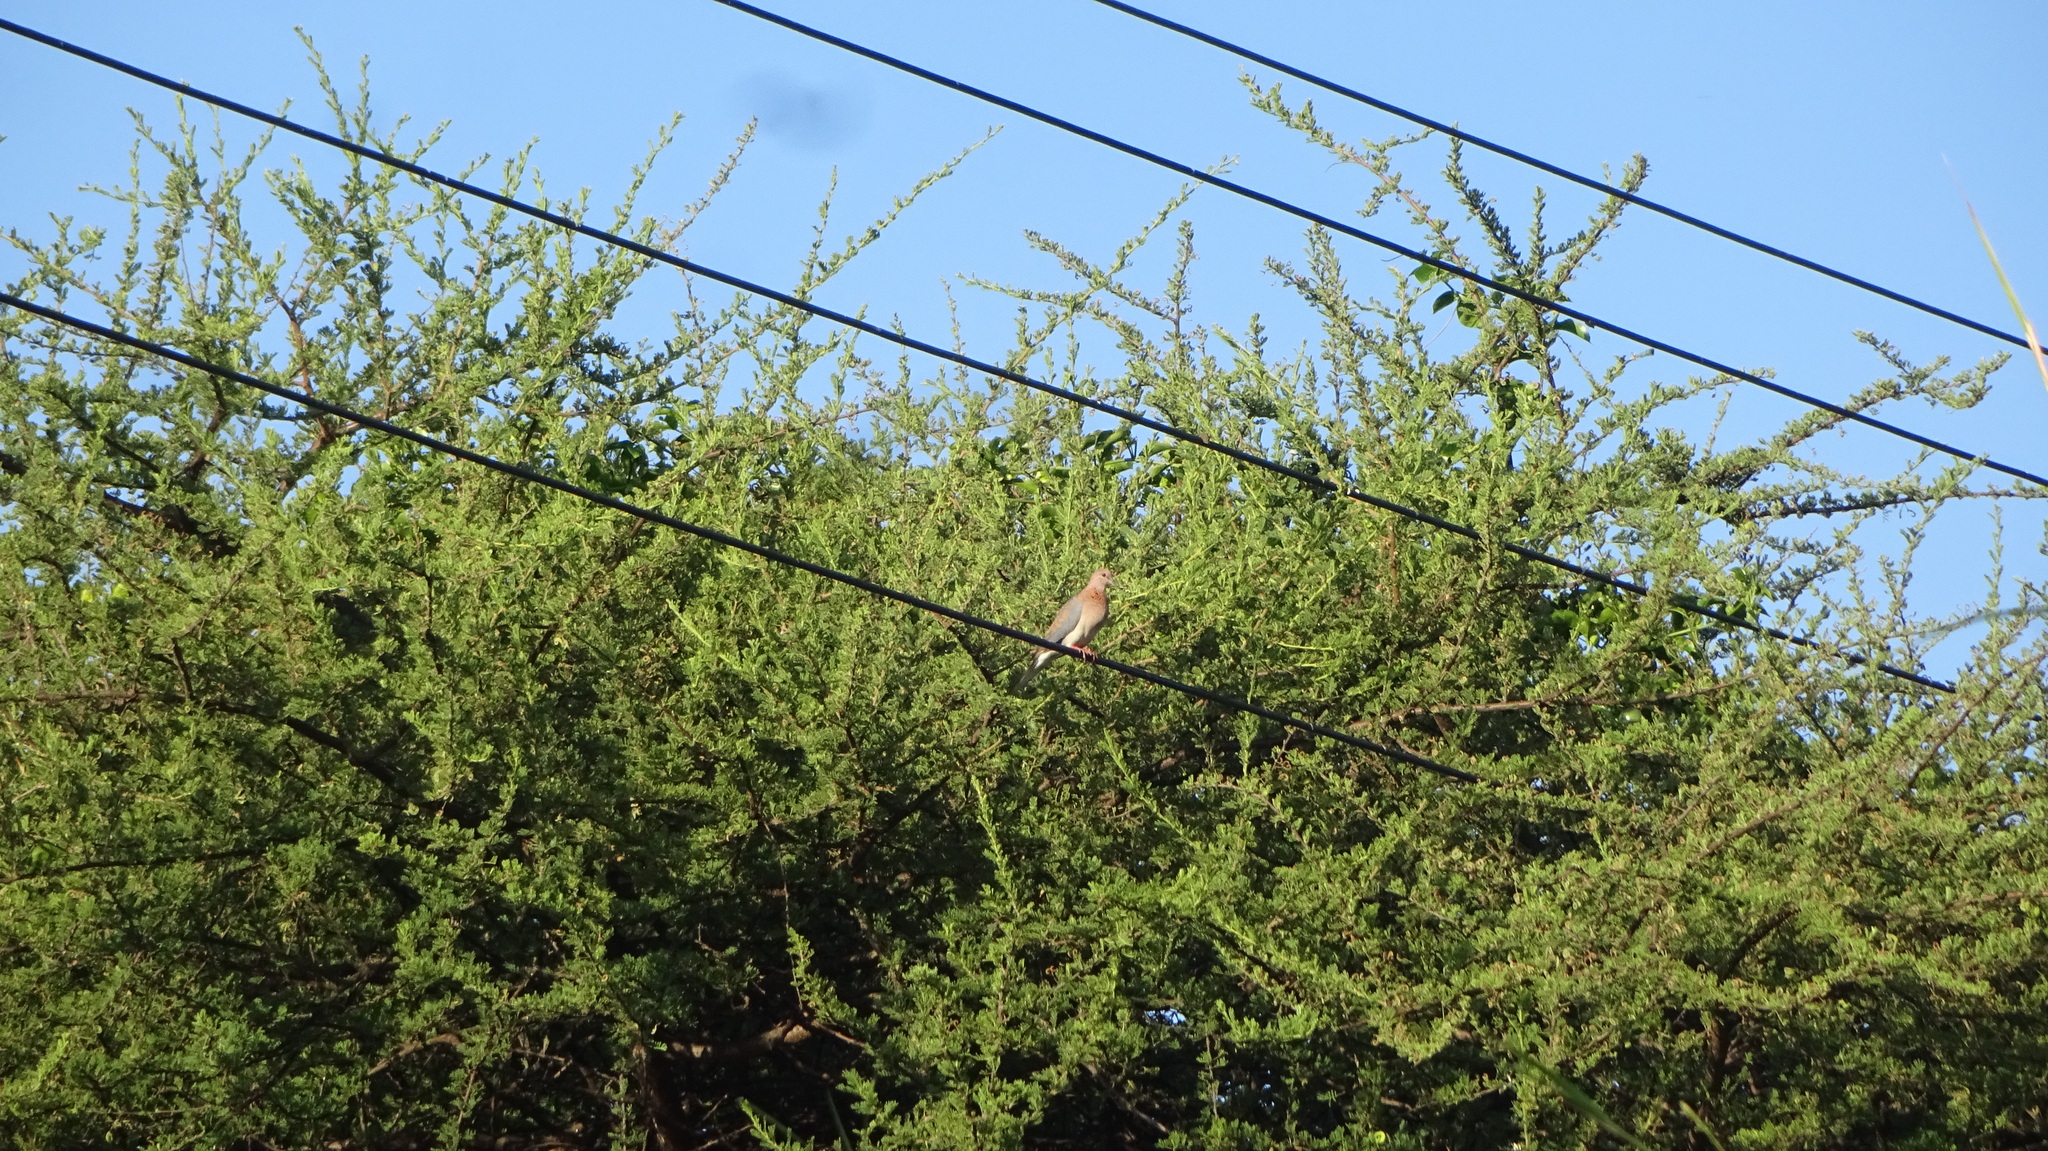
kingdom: Animalia
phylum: Chordata
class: Aves
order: Columbiformes
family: Columbidae
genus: Spilopelia
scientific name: Spilopelia senegalensis
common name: Laughing dove
